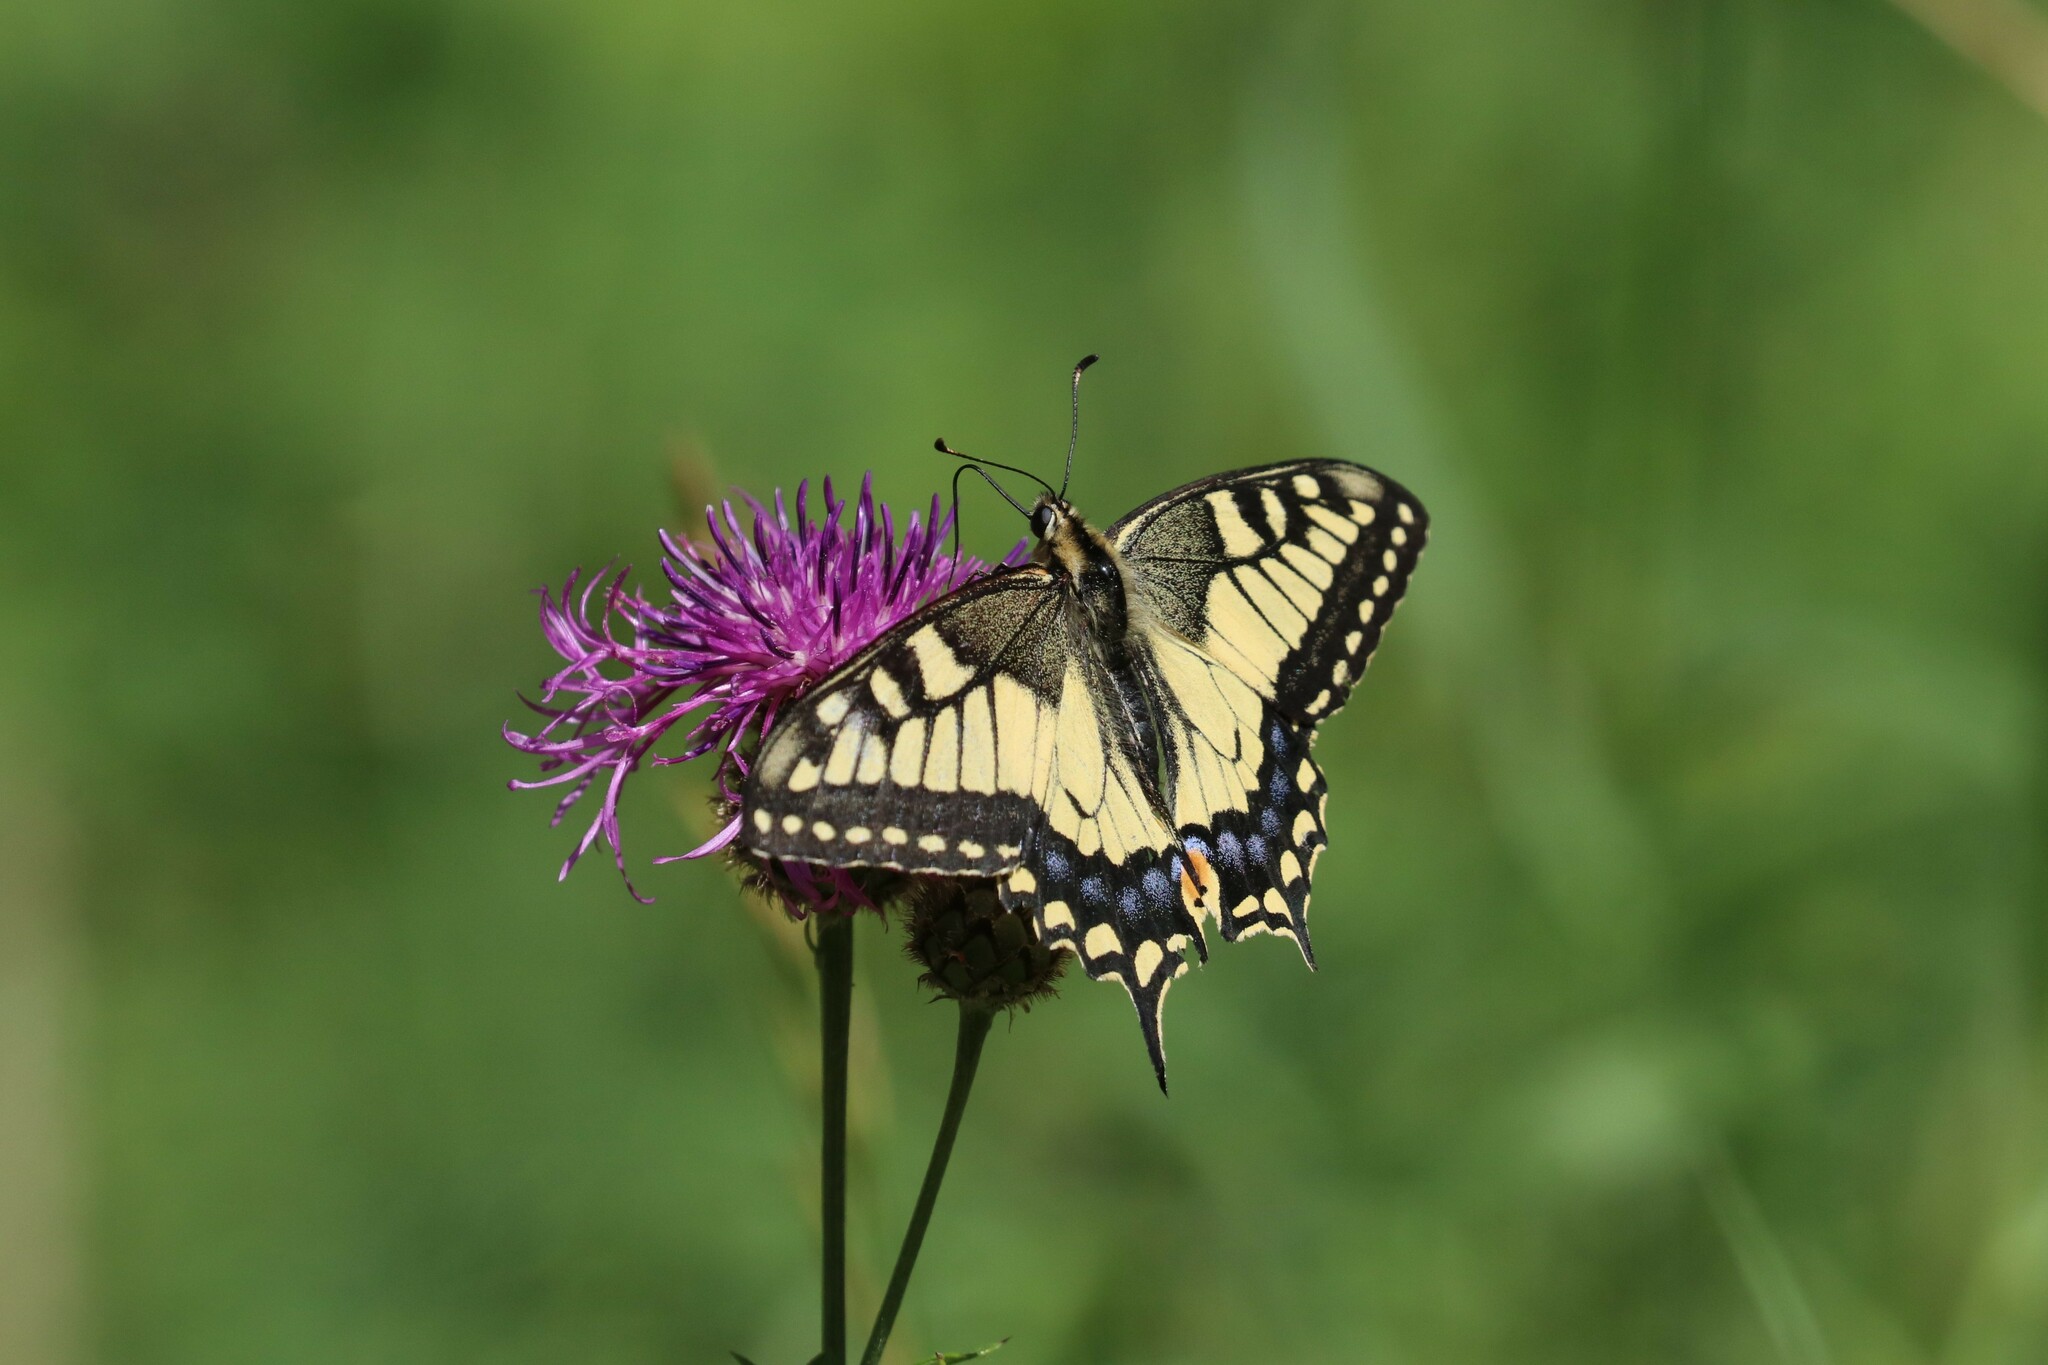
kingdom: Animalia
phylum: Arthropoda
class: Insecta
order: Lepidoptera
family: Papilionidae
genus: Papilio
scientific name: Papilio machaon
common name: Swallowtail
